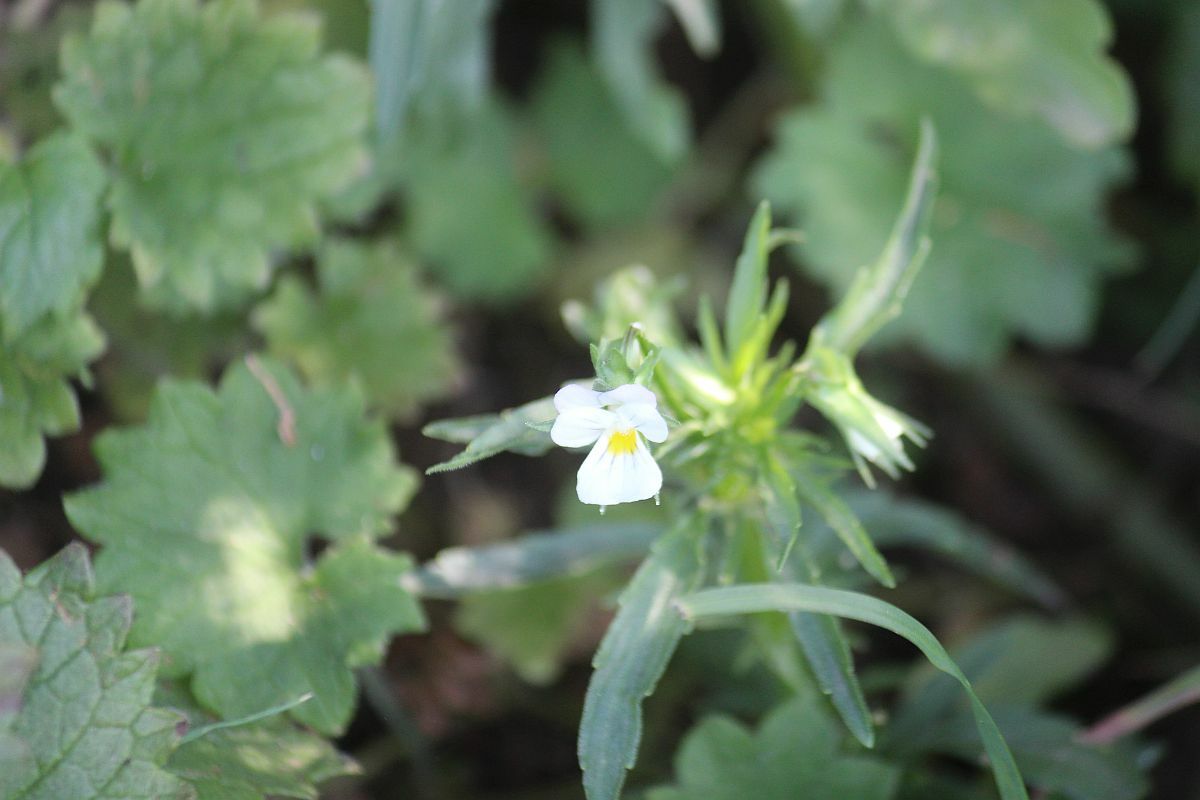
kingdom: Plantae
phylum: Tracheophyta
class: Magnoliopsida
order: Malpighiales
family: Violaceae
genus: Viola
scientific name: Viola arvensis
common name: Field pansy
